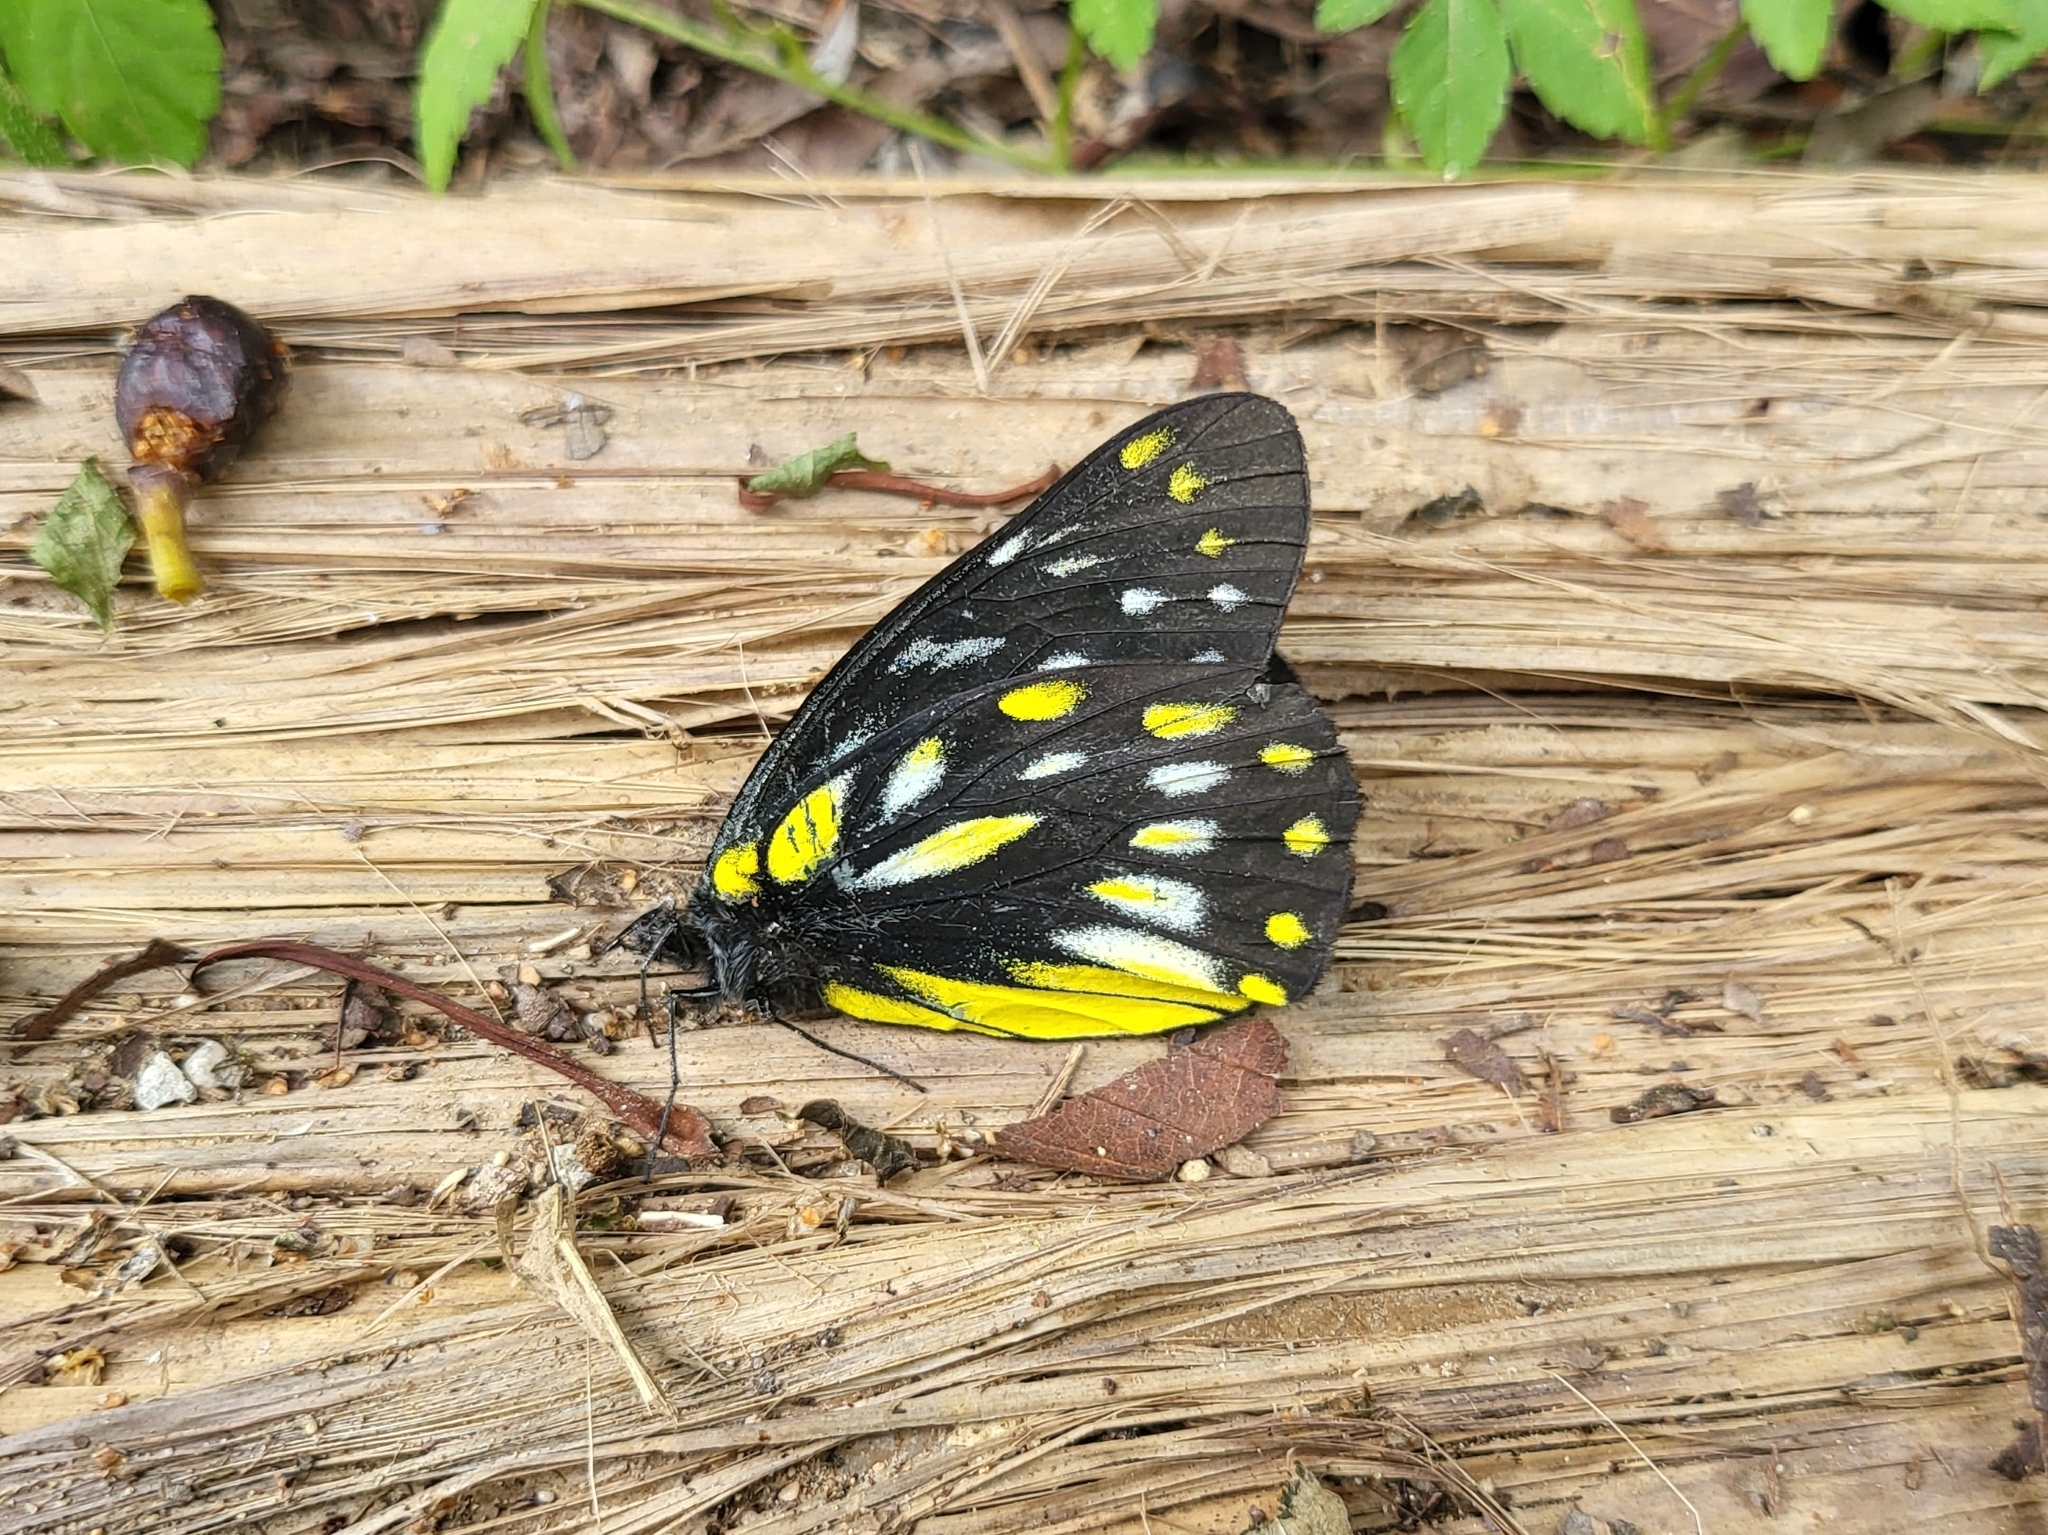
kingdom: Animalia
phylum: Arthropoda
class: Insecta
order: Lepidoptera
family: Pieridae
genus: Delias
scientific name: Delias berinda
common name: Dark jezebel
